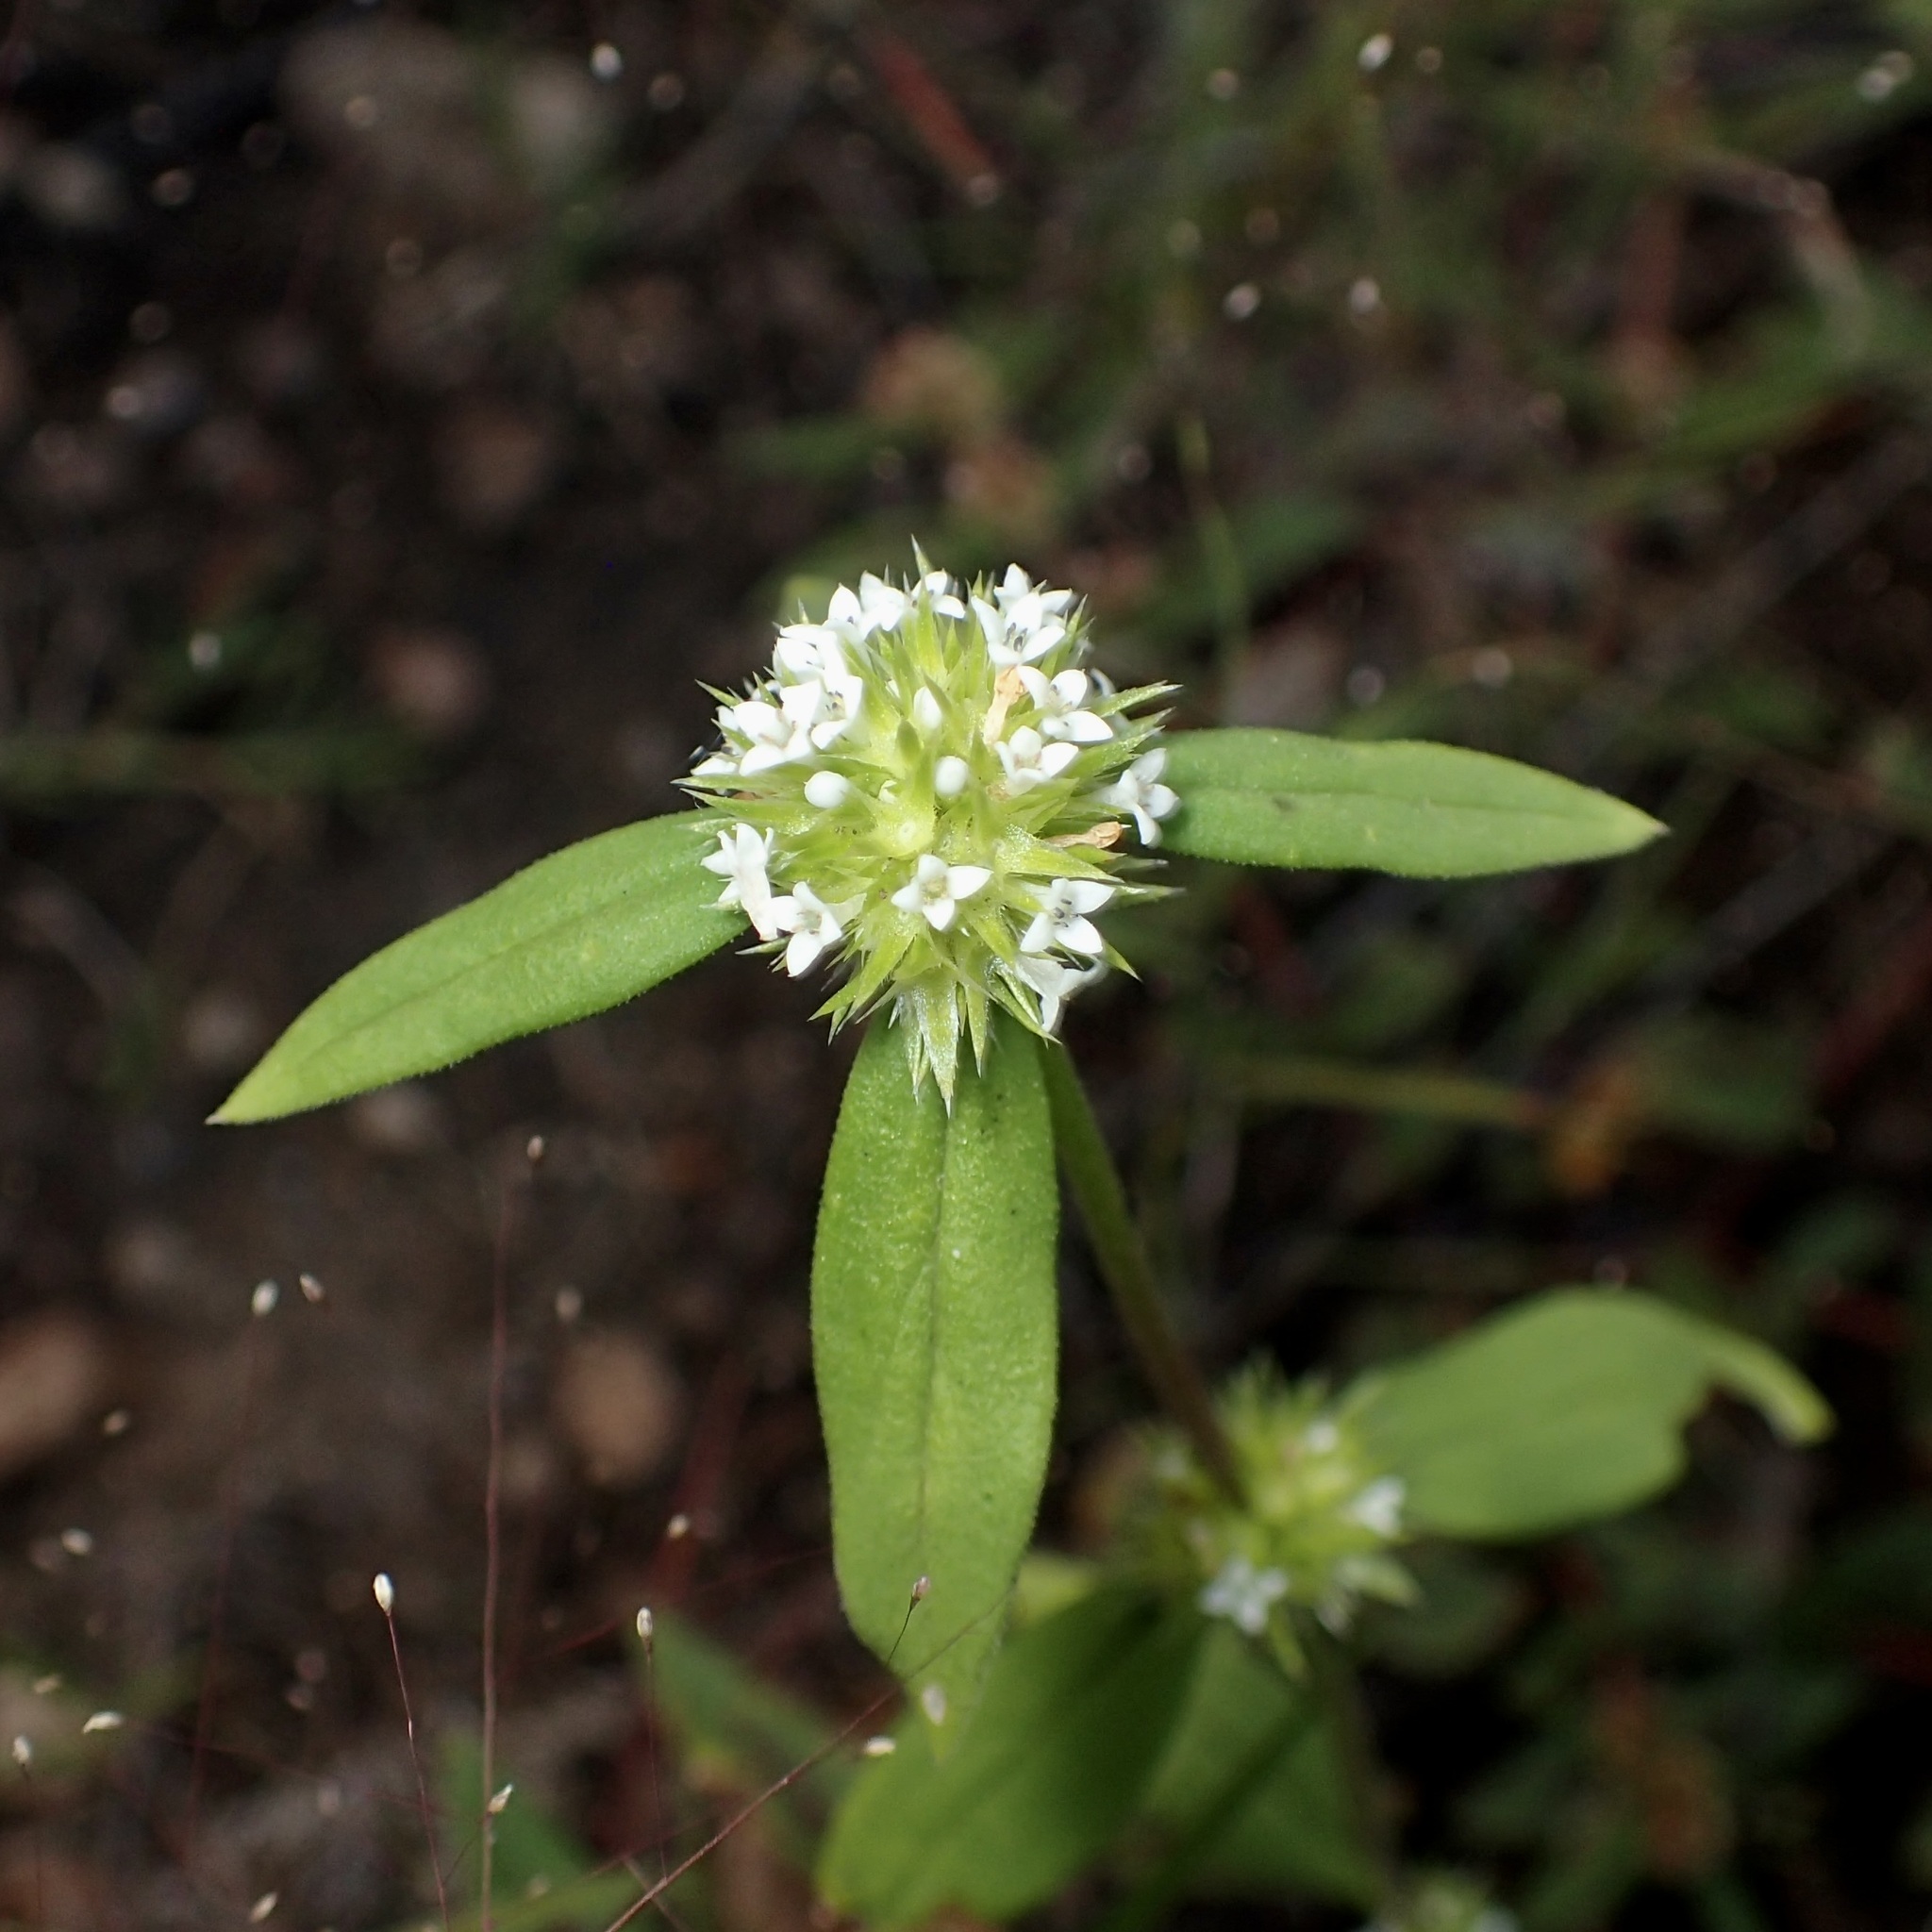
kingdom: Plantae
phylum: Tracheophyta
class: Magnoliopsida
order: Gentianales
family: Rubiaceae
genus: Mitracarpus
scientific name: Mitracarpus hirtus
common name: Tropical girdlepod
